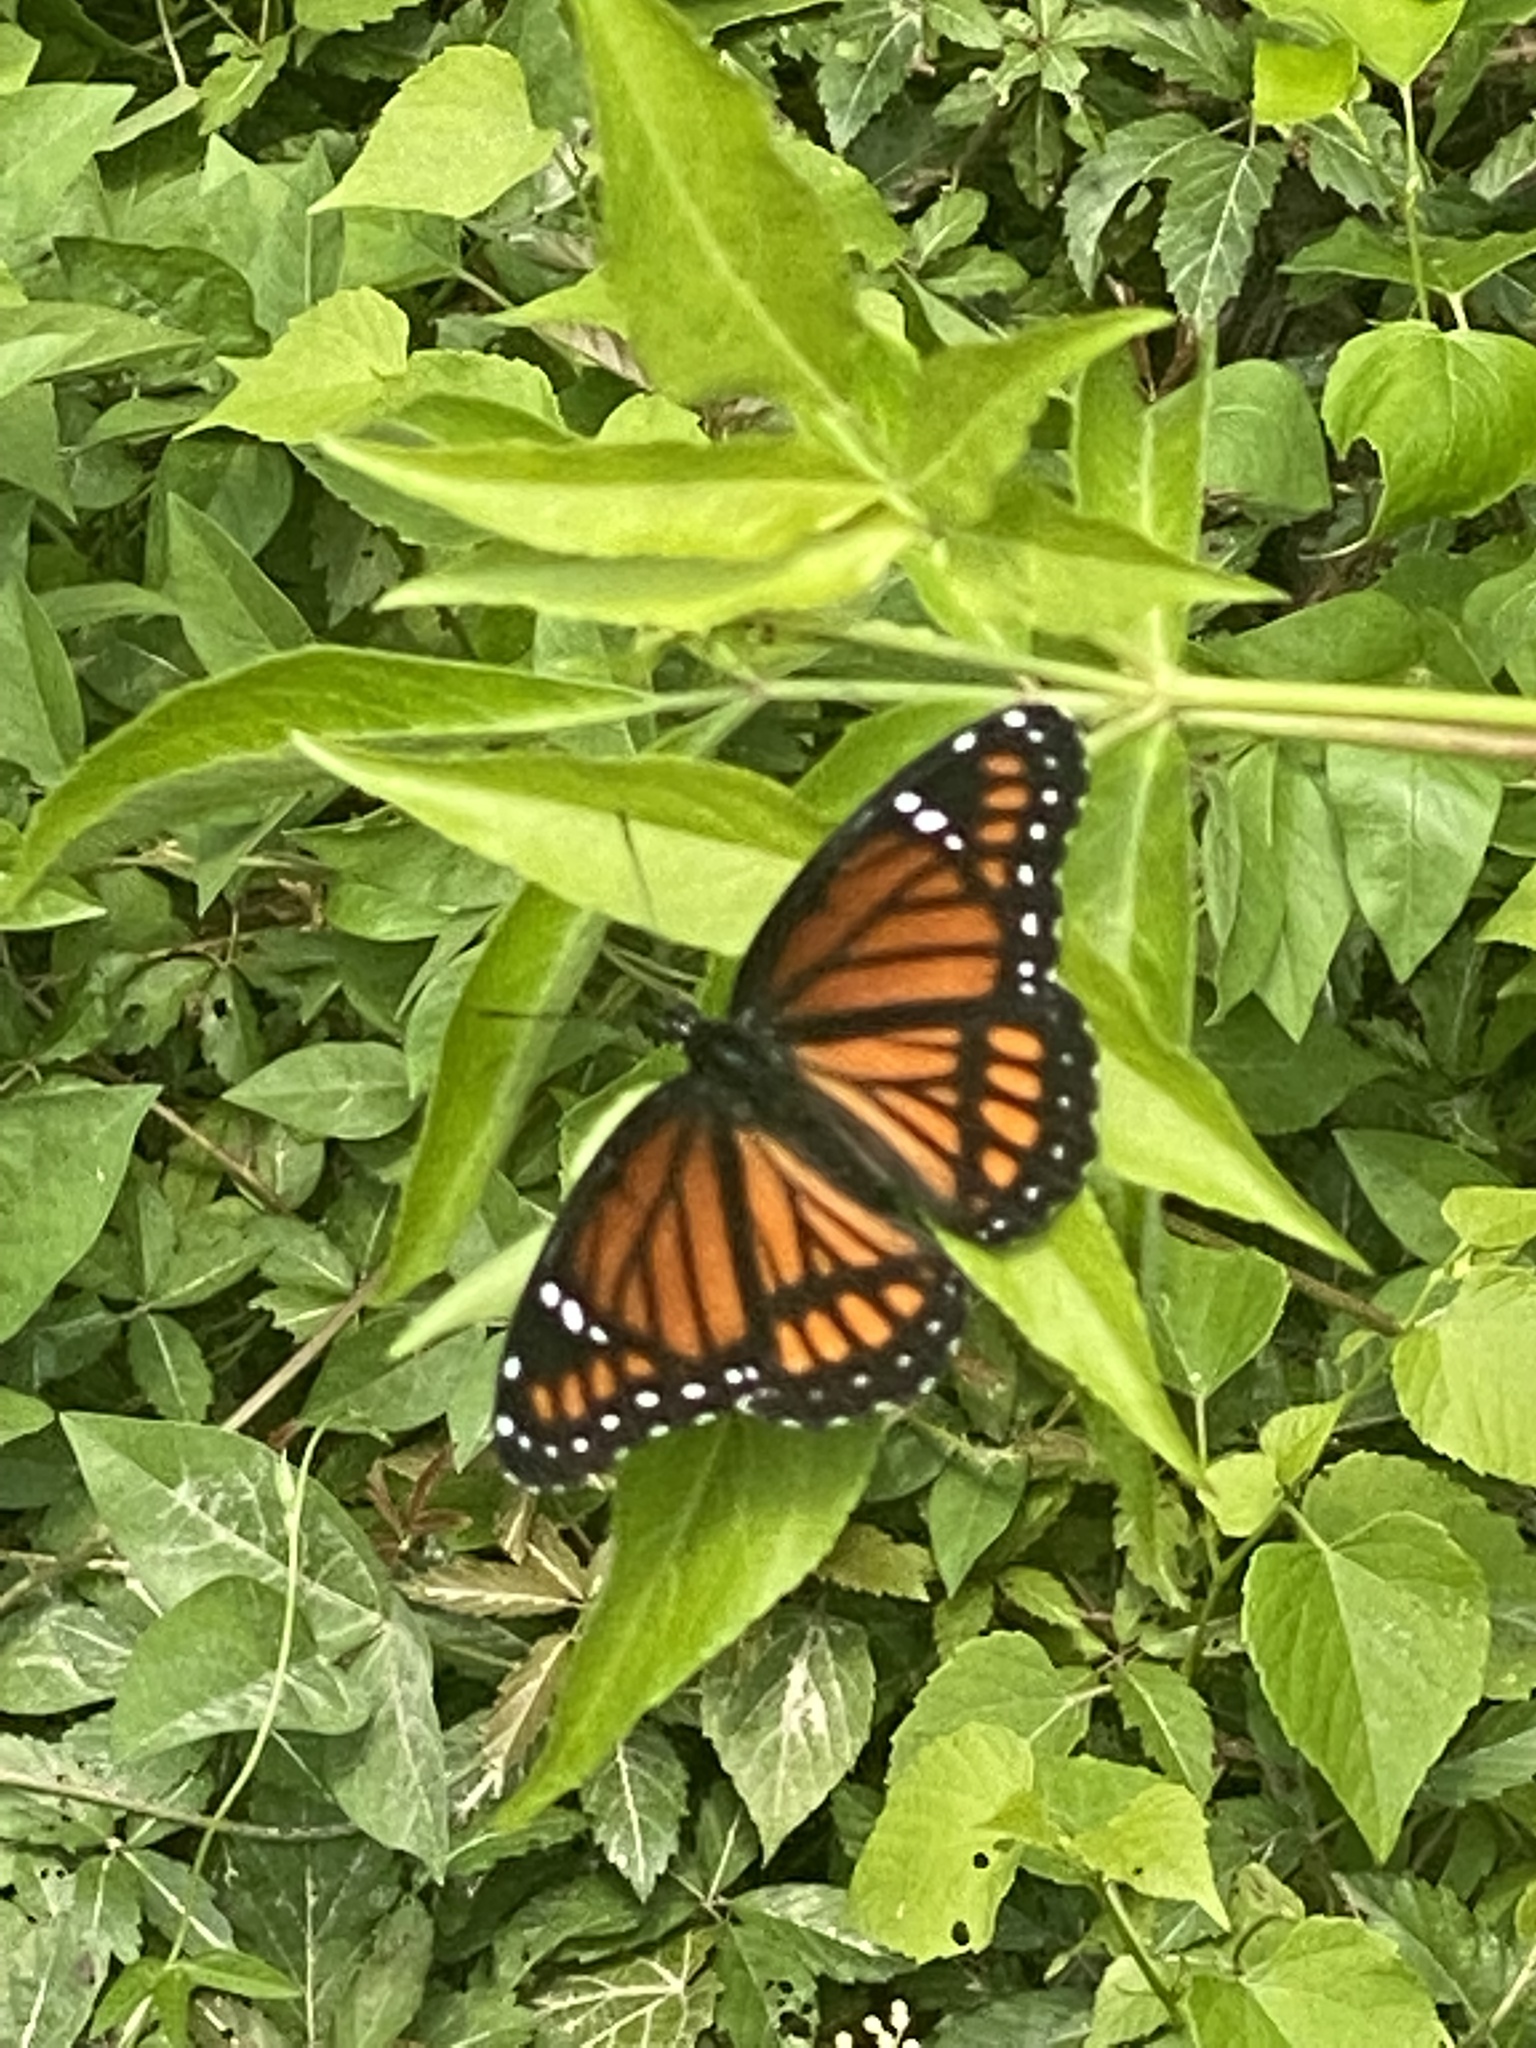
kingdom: Animalia
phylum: Arthropoda
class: Insecta
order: Lepidoptera
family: Nymphalidae
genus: Limenitis
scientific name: Limenitis archippus
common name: Viceroy
